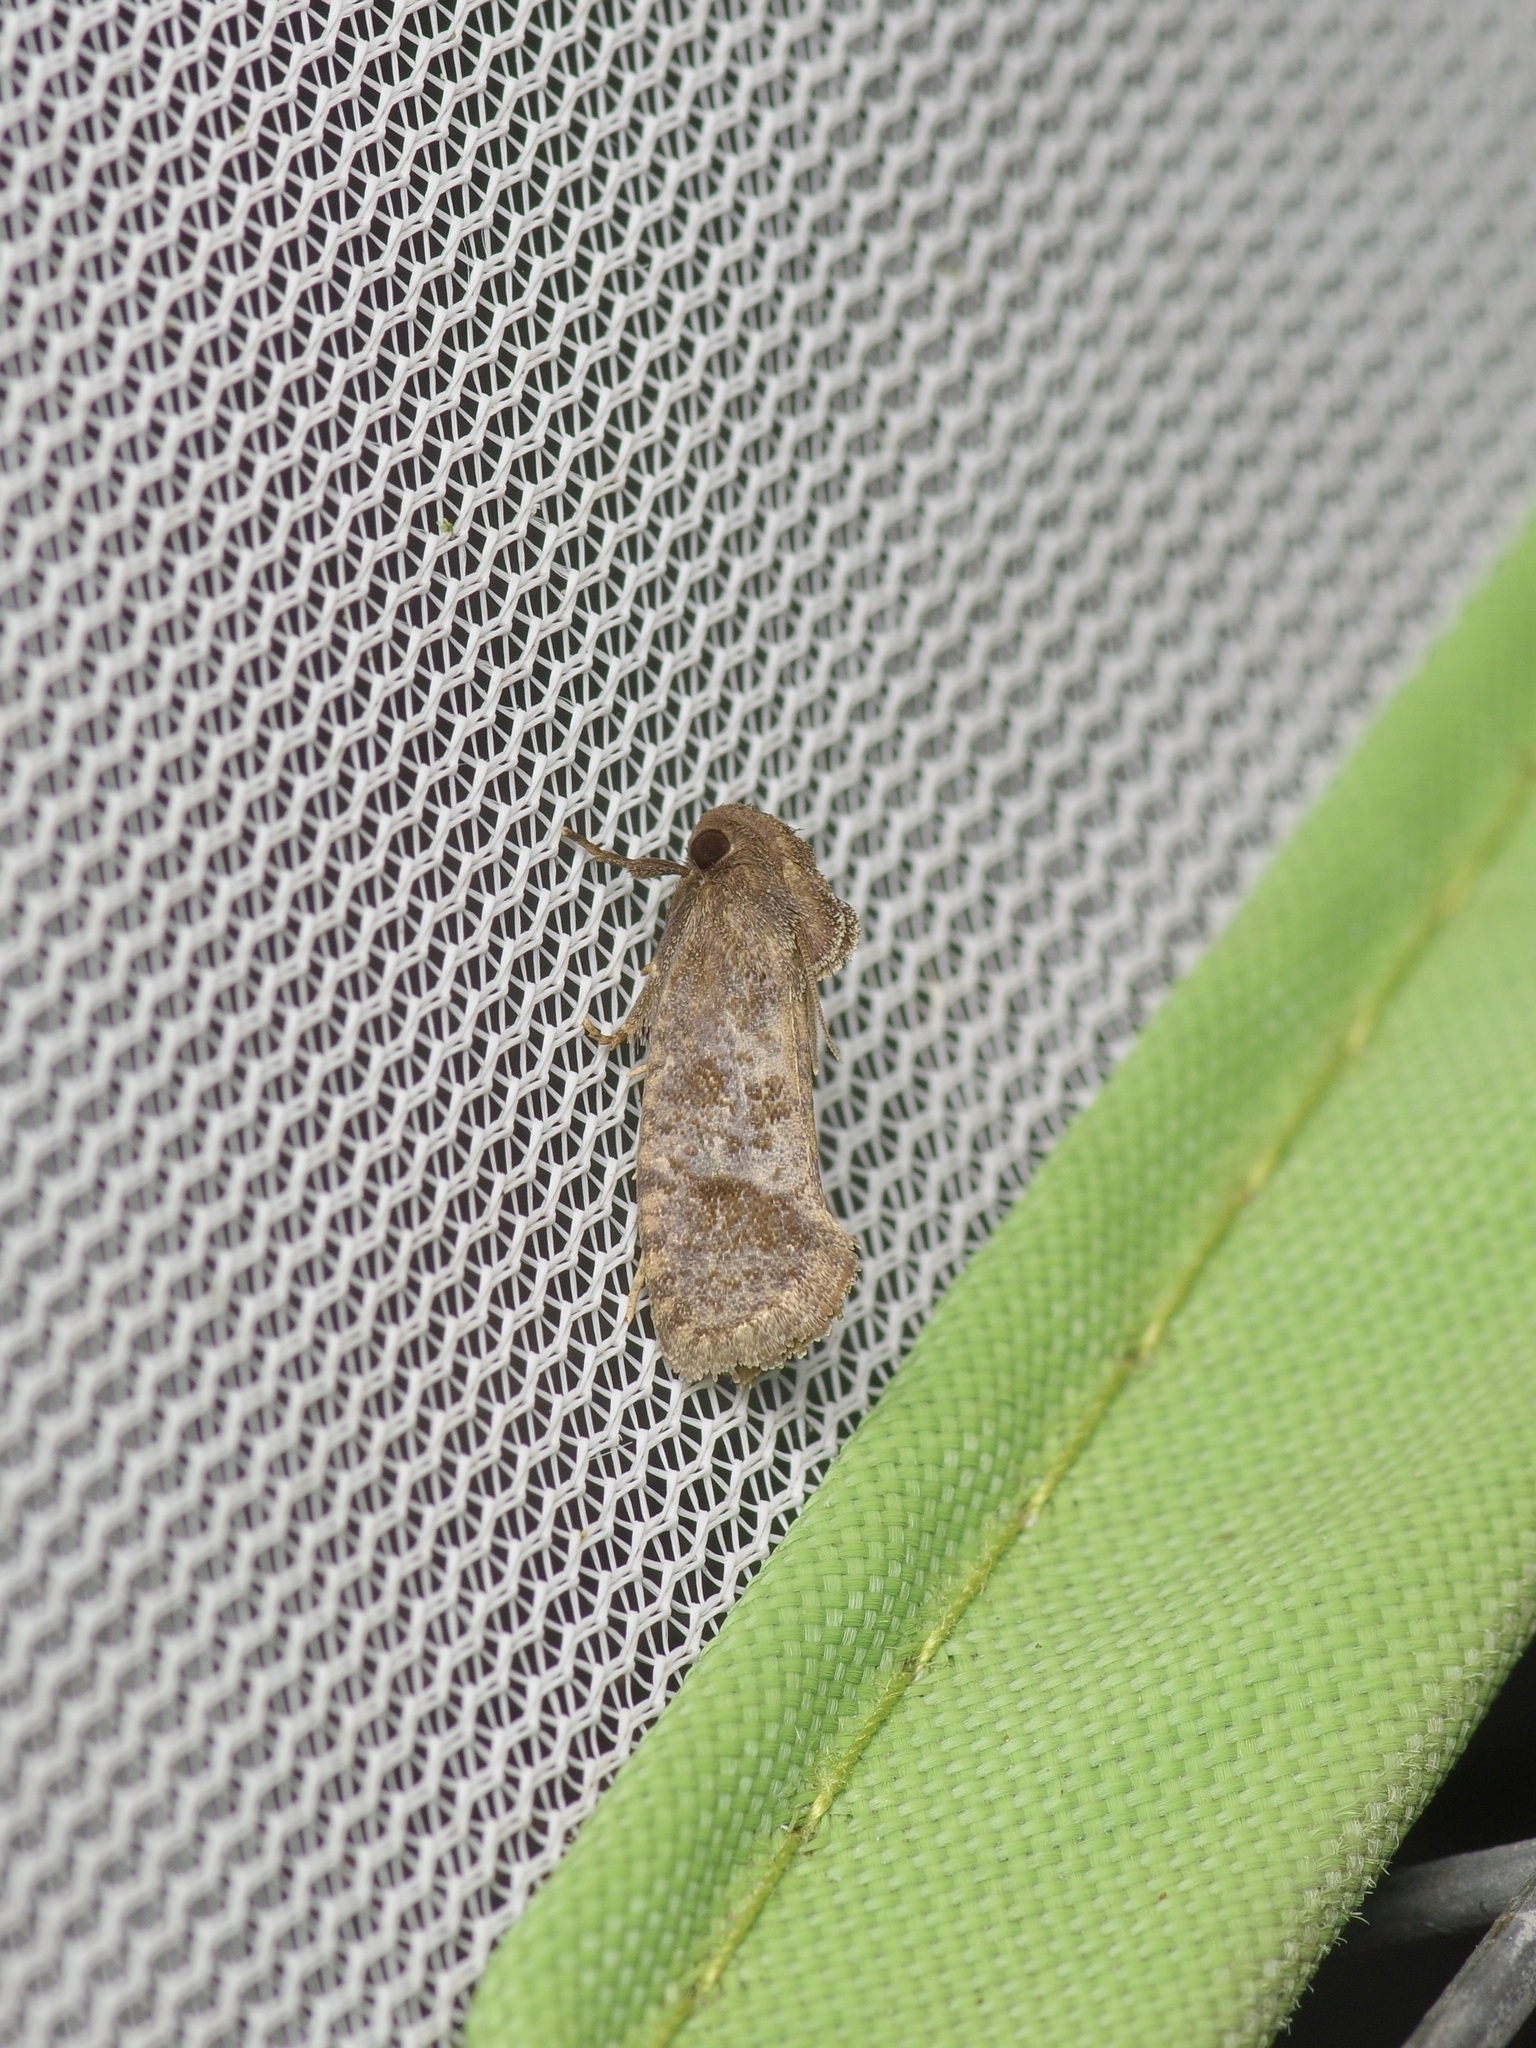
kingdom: Animalia
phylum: Arthropoda
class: Insecta
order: Lepidoptera
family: Tineidae
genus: Acrolophus
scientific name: Acrolophus texanella
